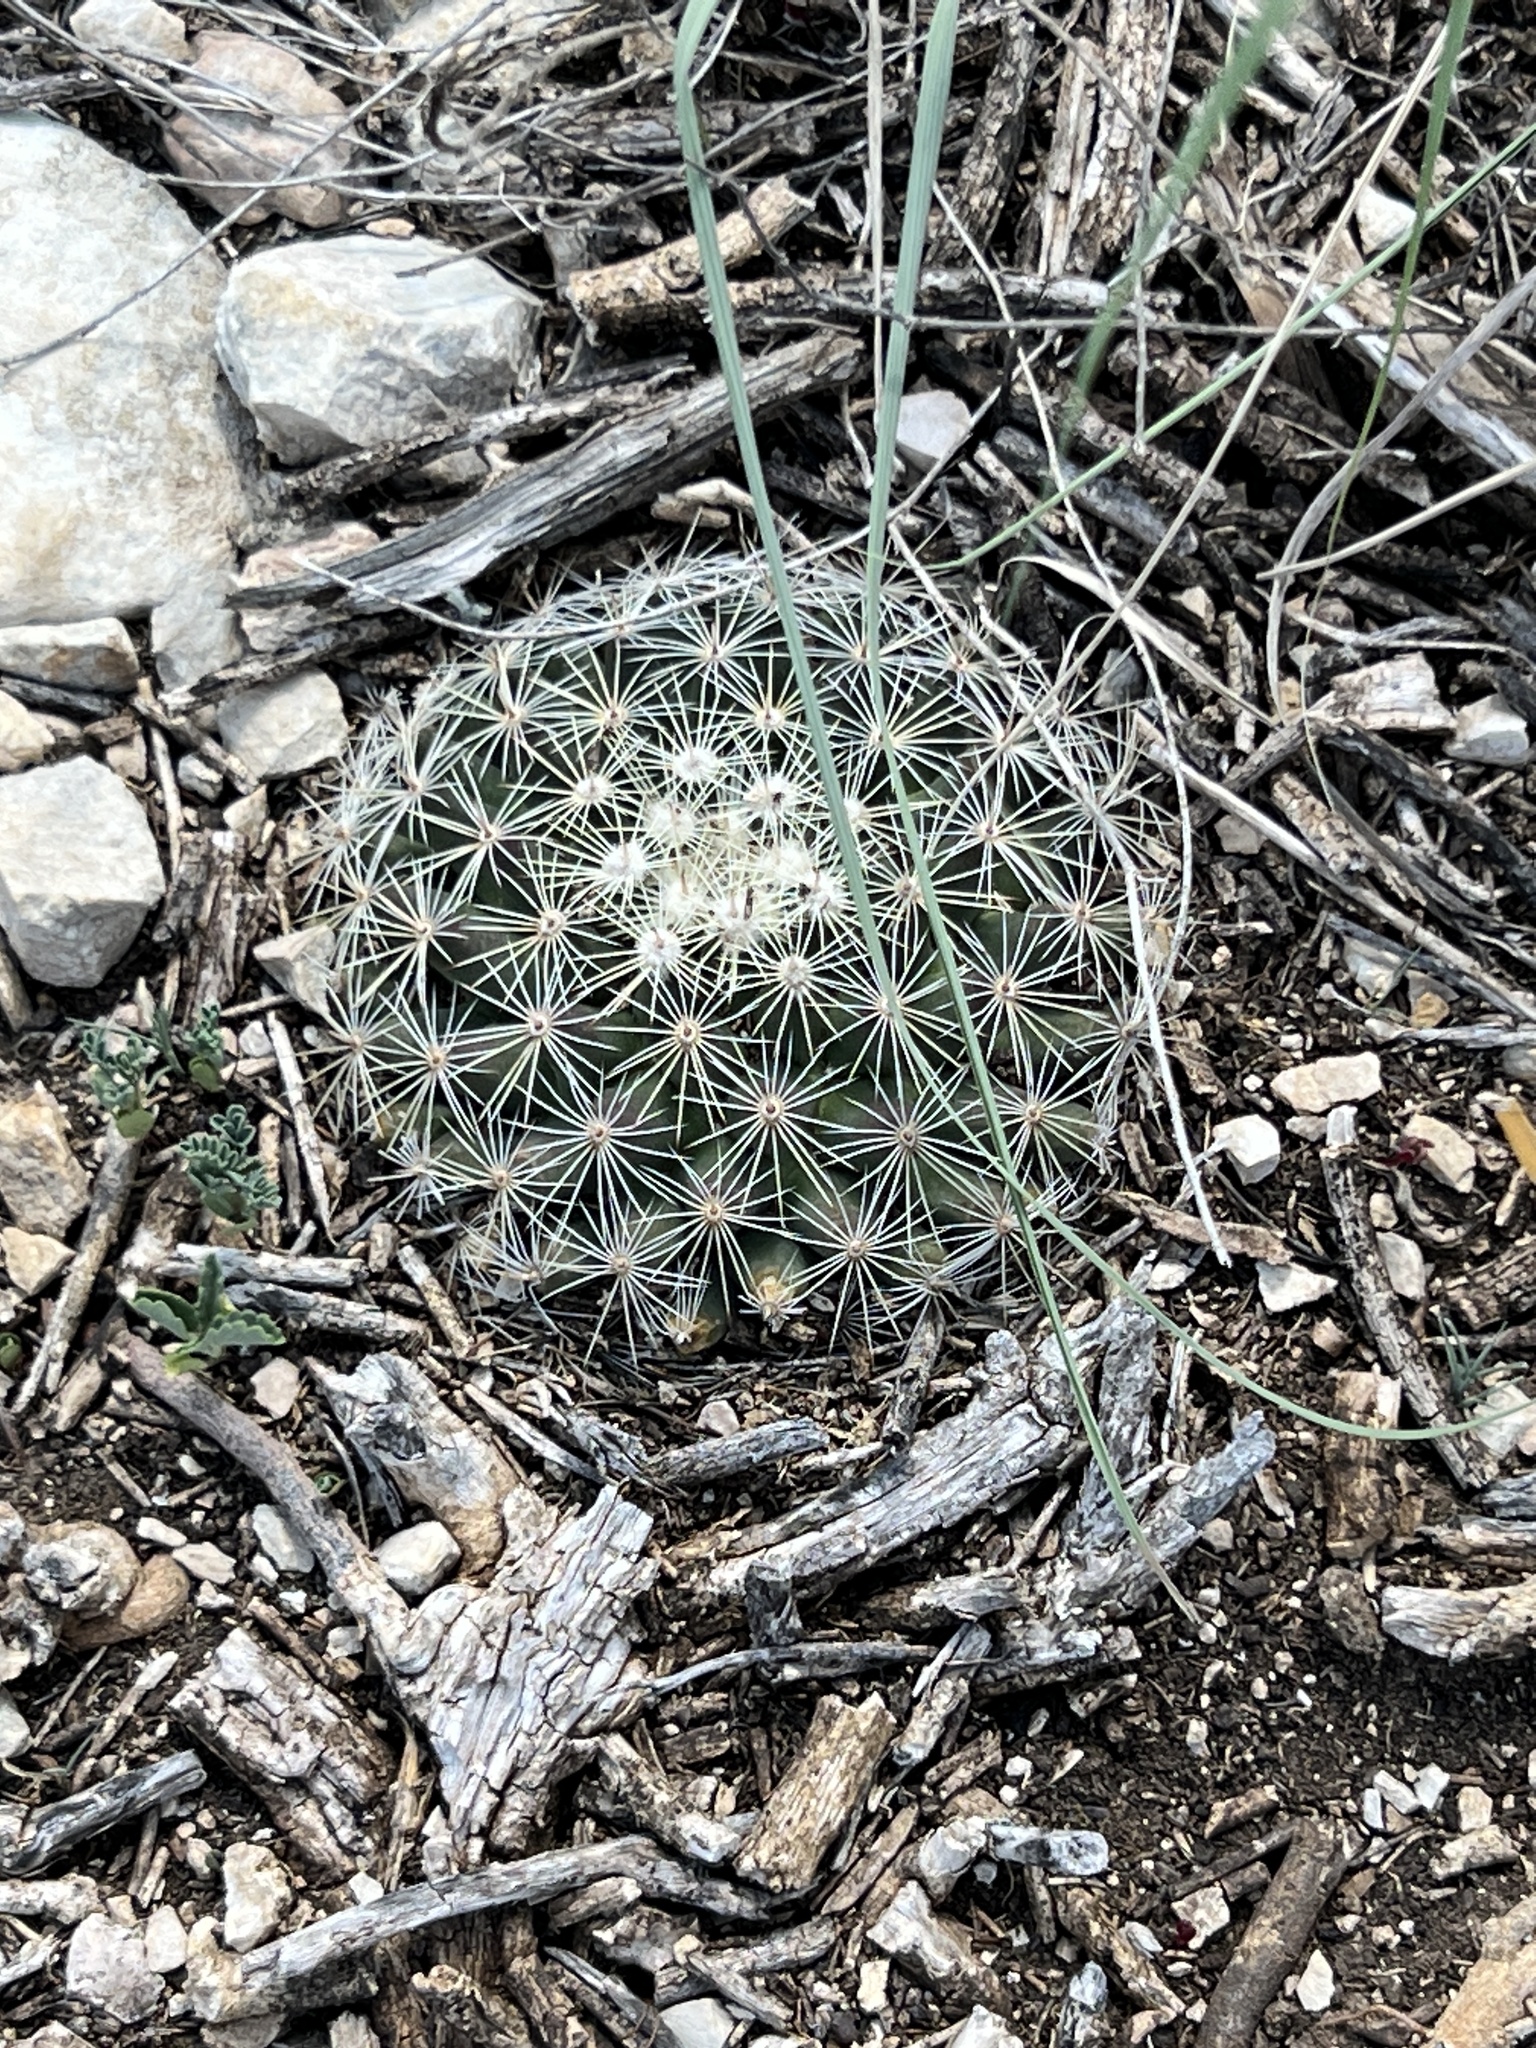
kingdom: Plantae
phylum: Tracheophyta
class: Magnoliopsida
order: Caryophyllales
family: Cactaceae
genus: Mammillaria
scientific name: Mammillaria heyderi
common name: Little nipple cactus
